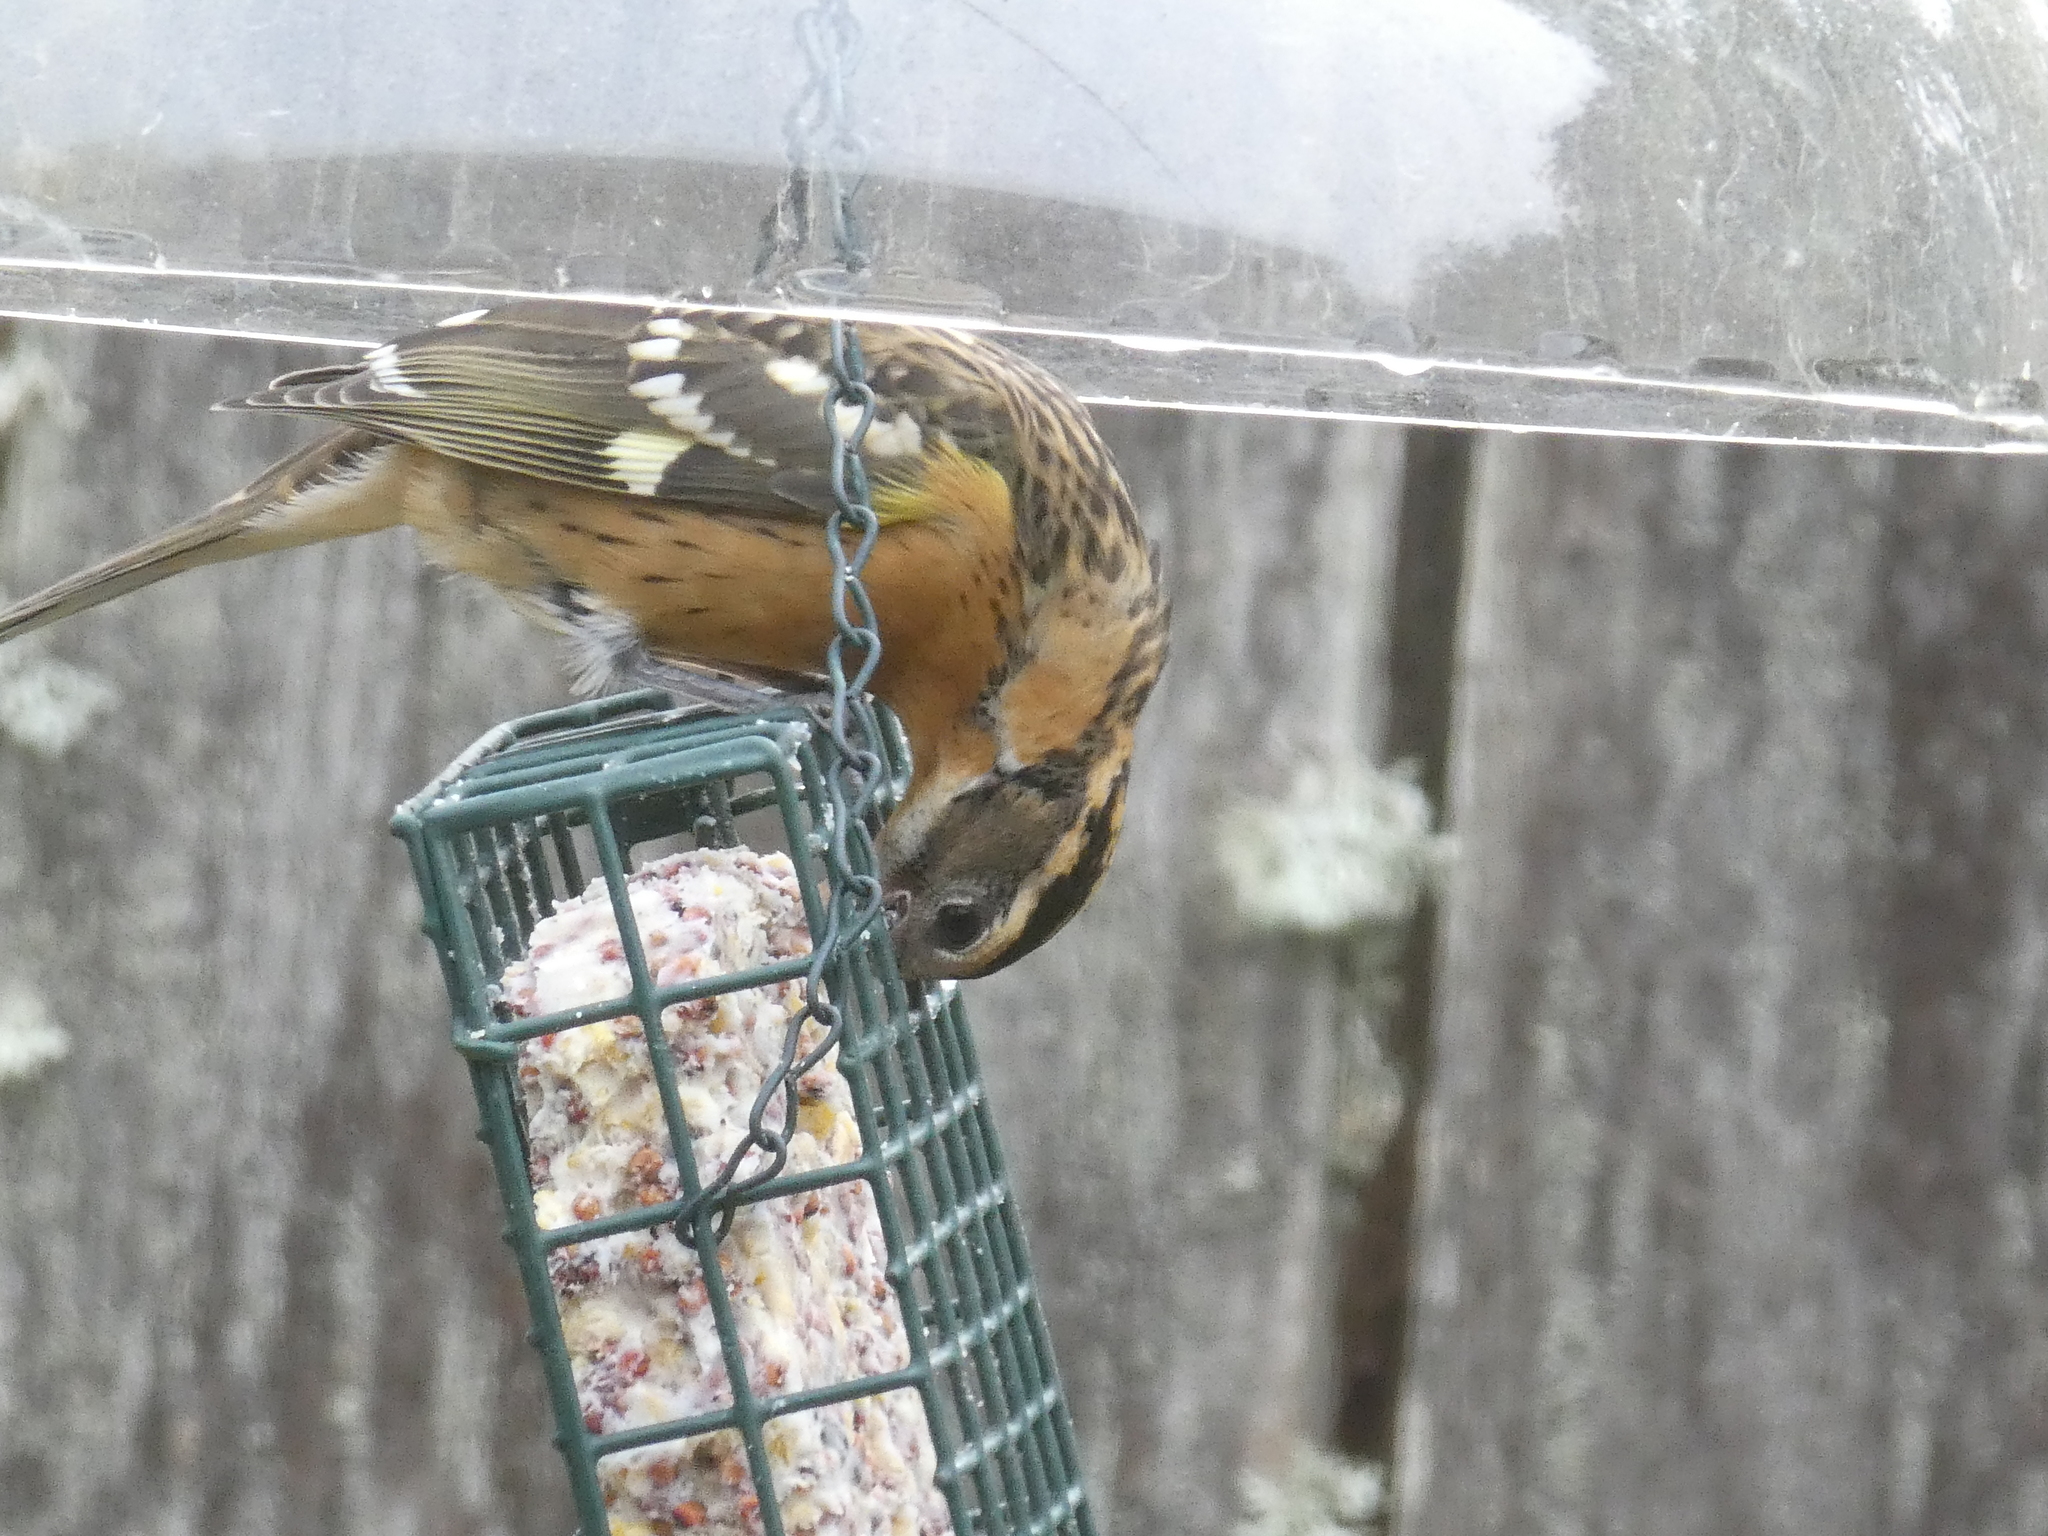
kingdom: Animalia
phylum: Chordata
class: Aves
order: Passeriformes
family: Cardinalidae
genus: Pheucticus
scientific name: Pheucticus melanocephalus
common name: Black-headed grosbeak
